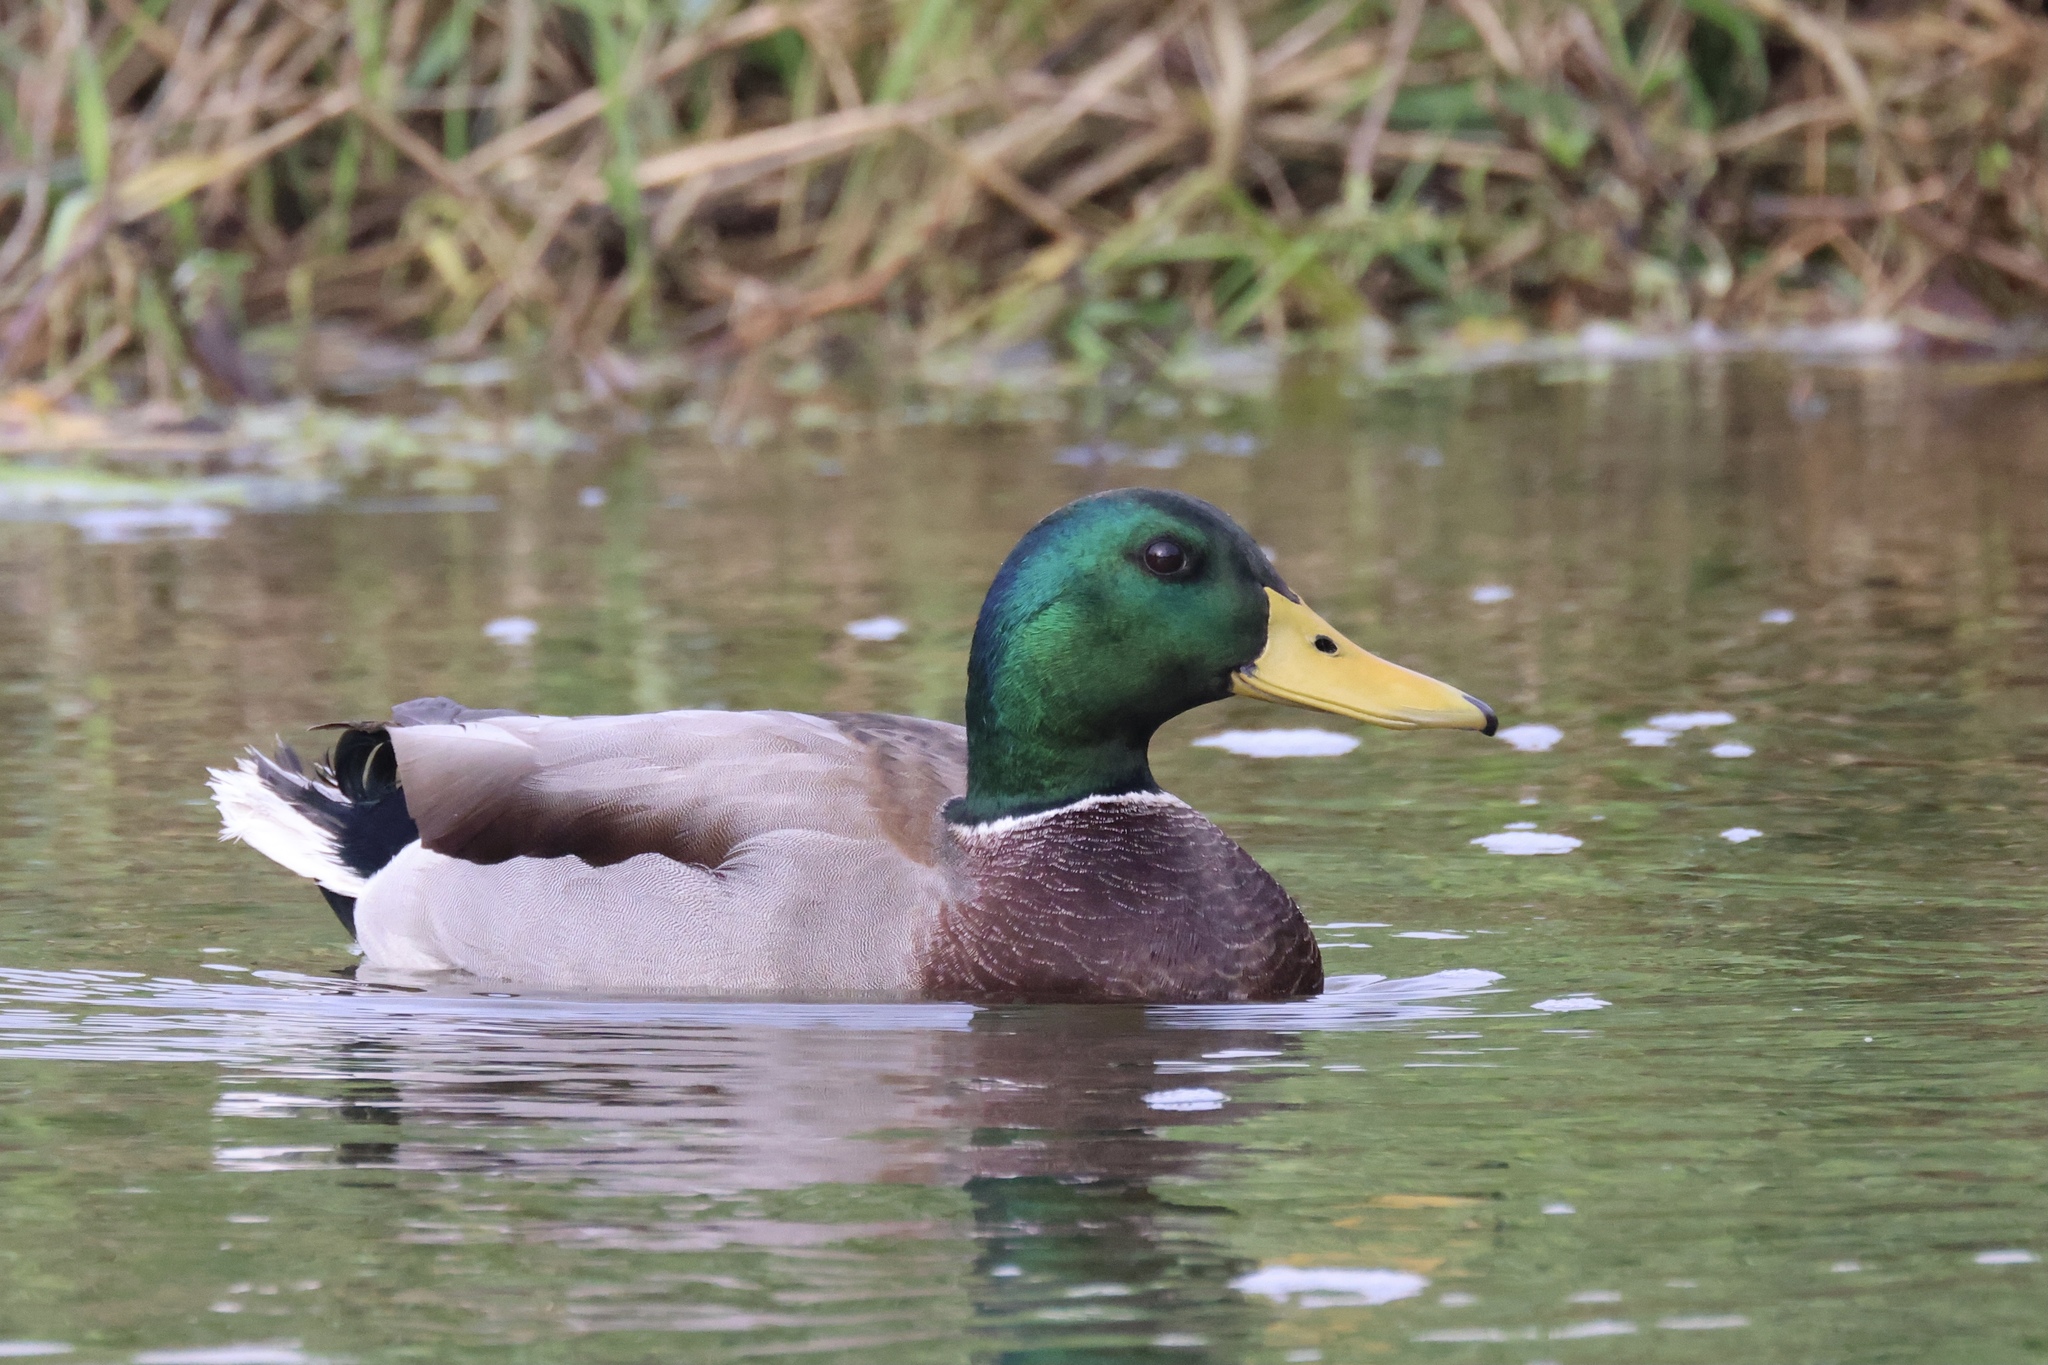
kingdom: Animalia
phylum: Chordata
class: Aves
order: Anseriformes
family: Anatidae
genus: Anas
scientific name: Anas platyrhynchos
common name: Mallard
